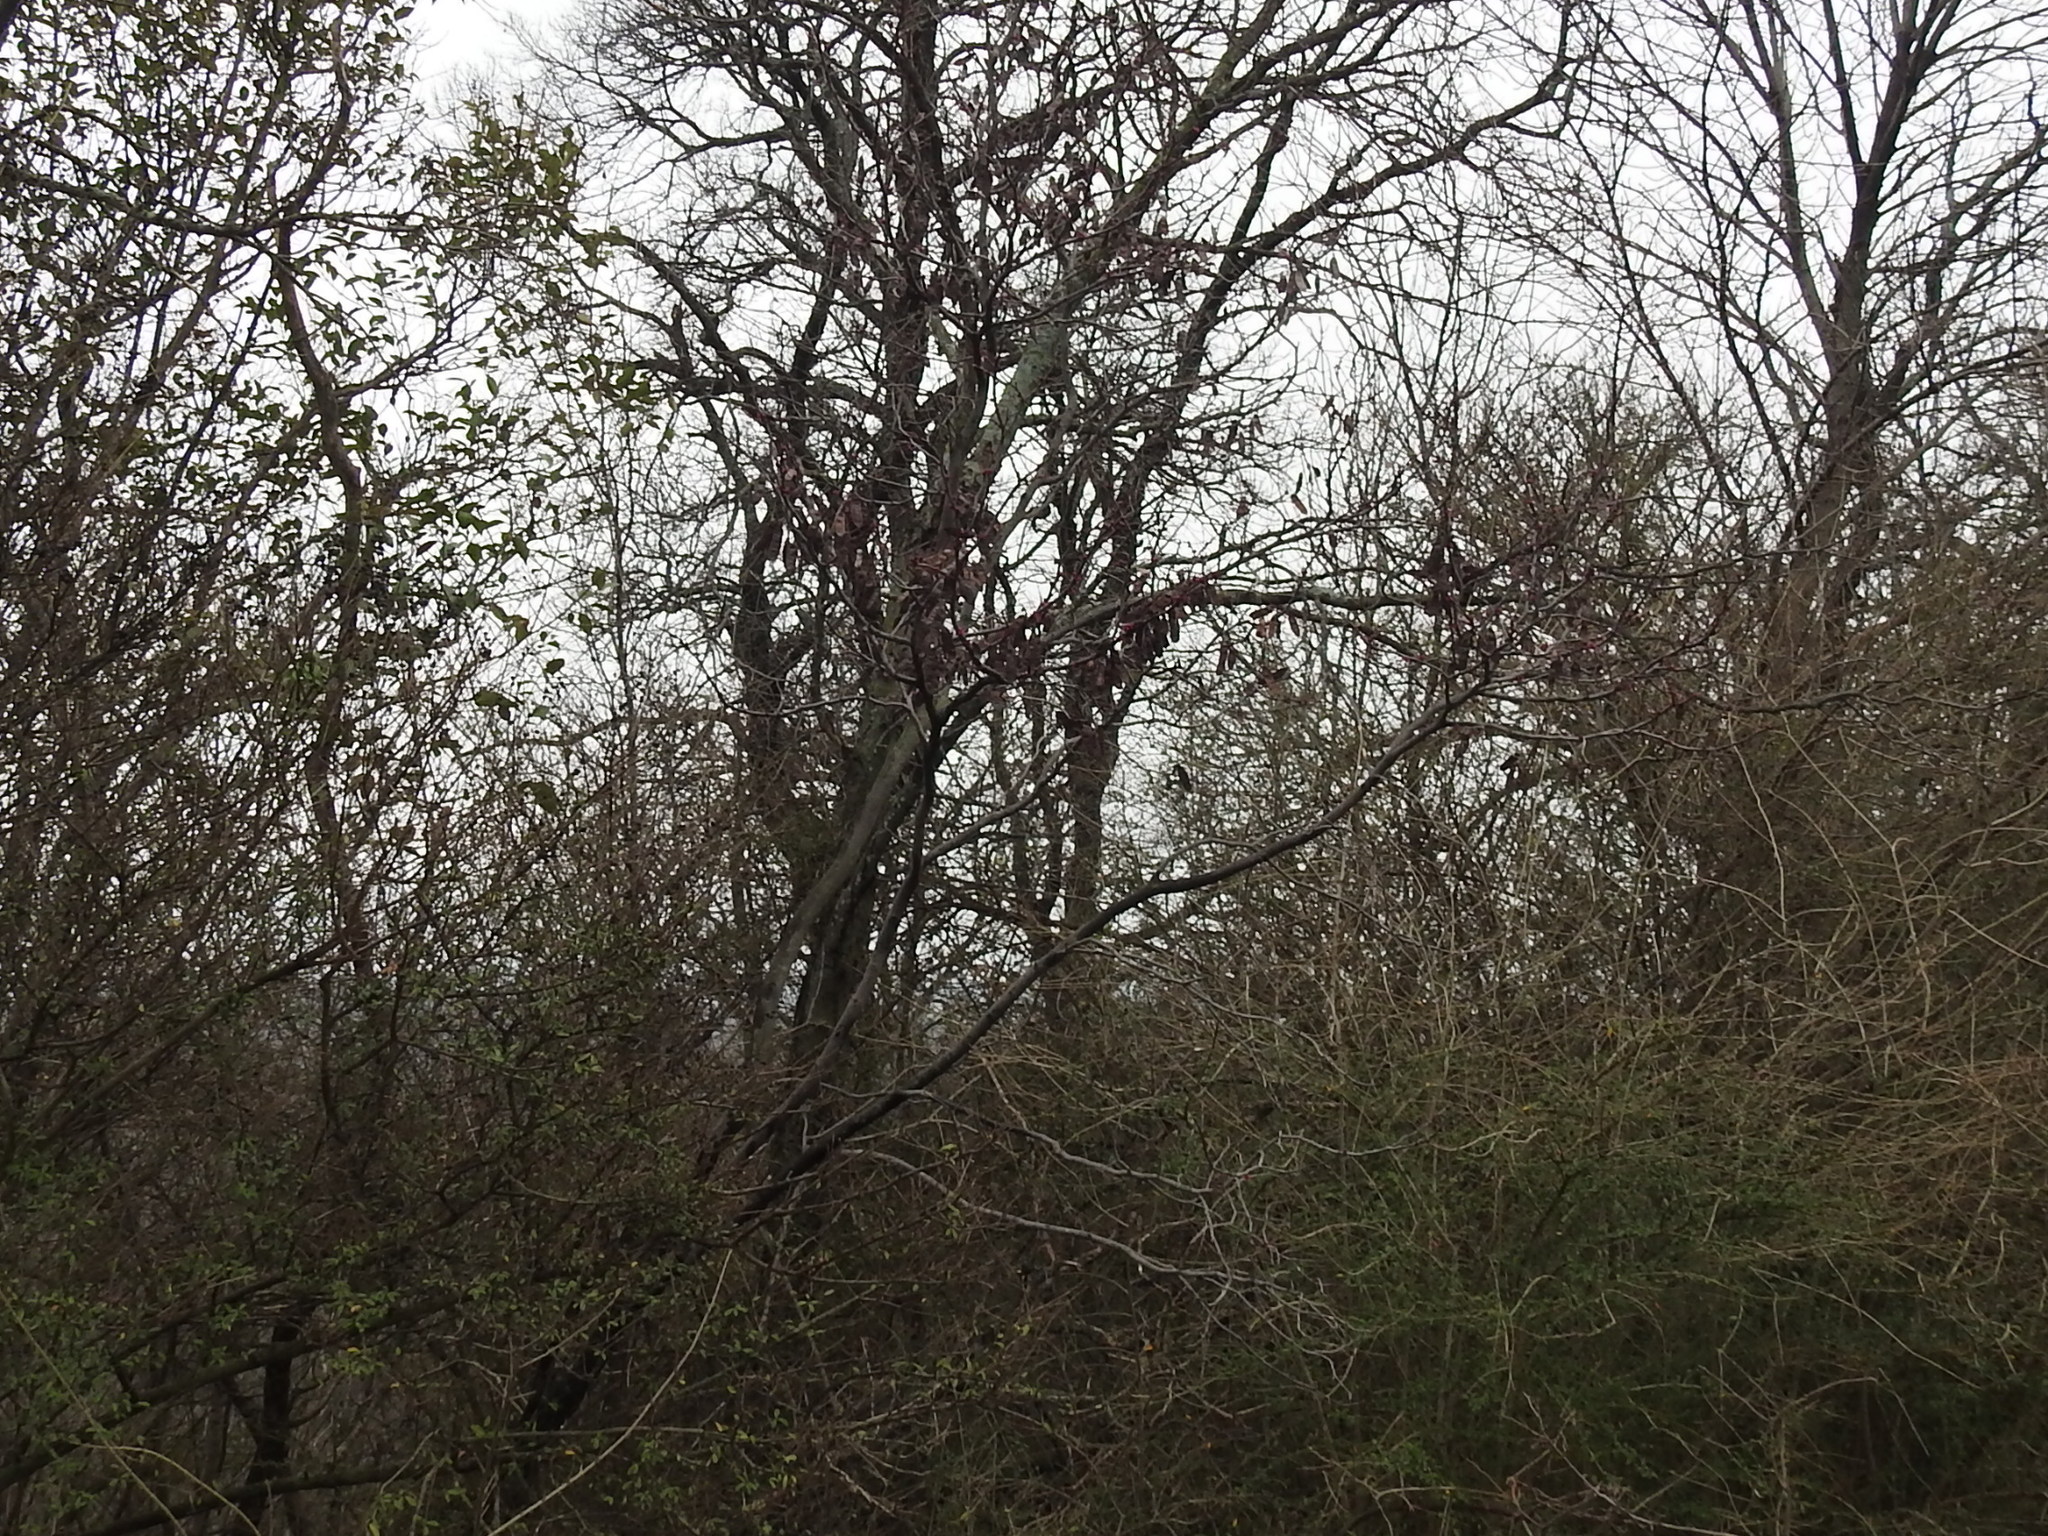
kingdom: Plantae
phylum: Tracheophyta
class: Magnoliopsida
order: Fabales
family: Fabaceae
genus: Cercis
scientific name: Cercis canadensis
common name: Eastern redbud
